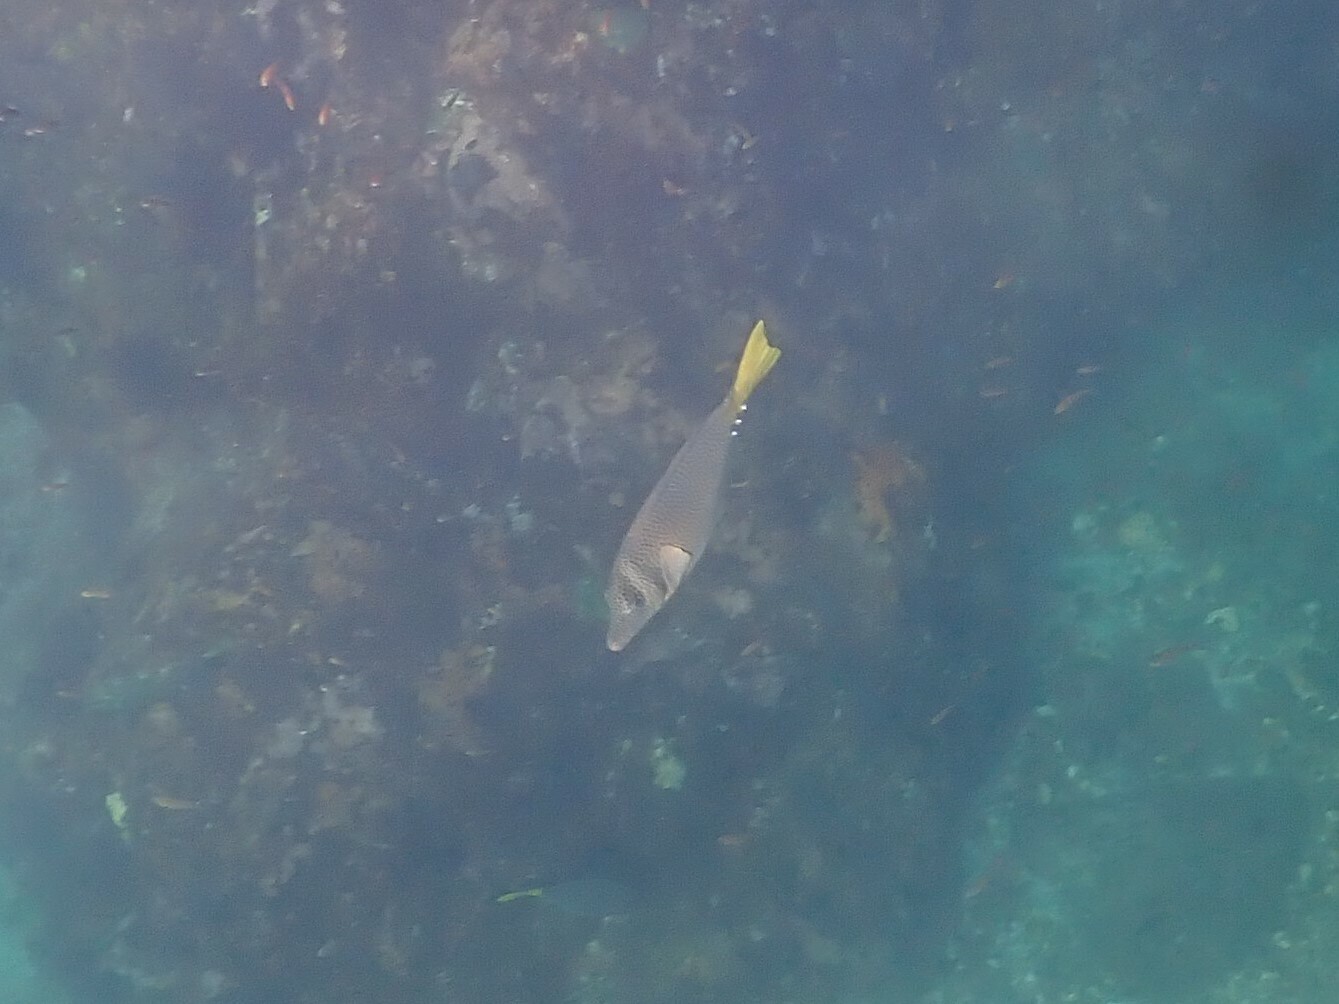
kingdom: Animalia
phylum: Chordata
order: Perciformes
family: Acanthuridae
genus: Prionurus
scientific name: Prionurus laticlavius
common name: Razor surgeonfish
